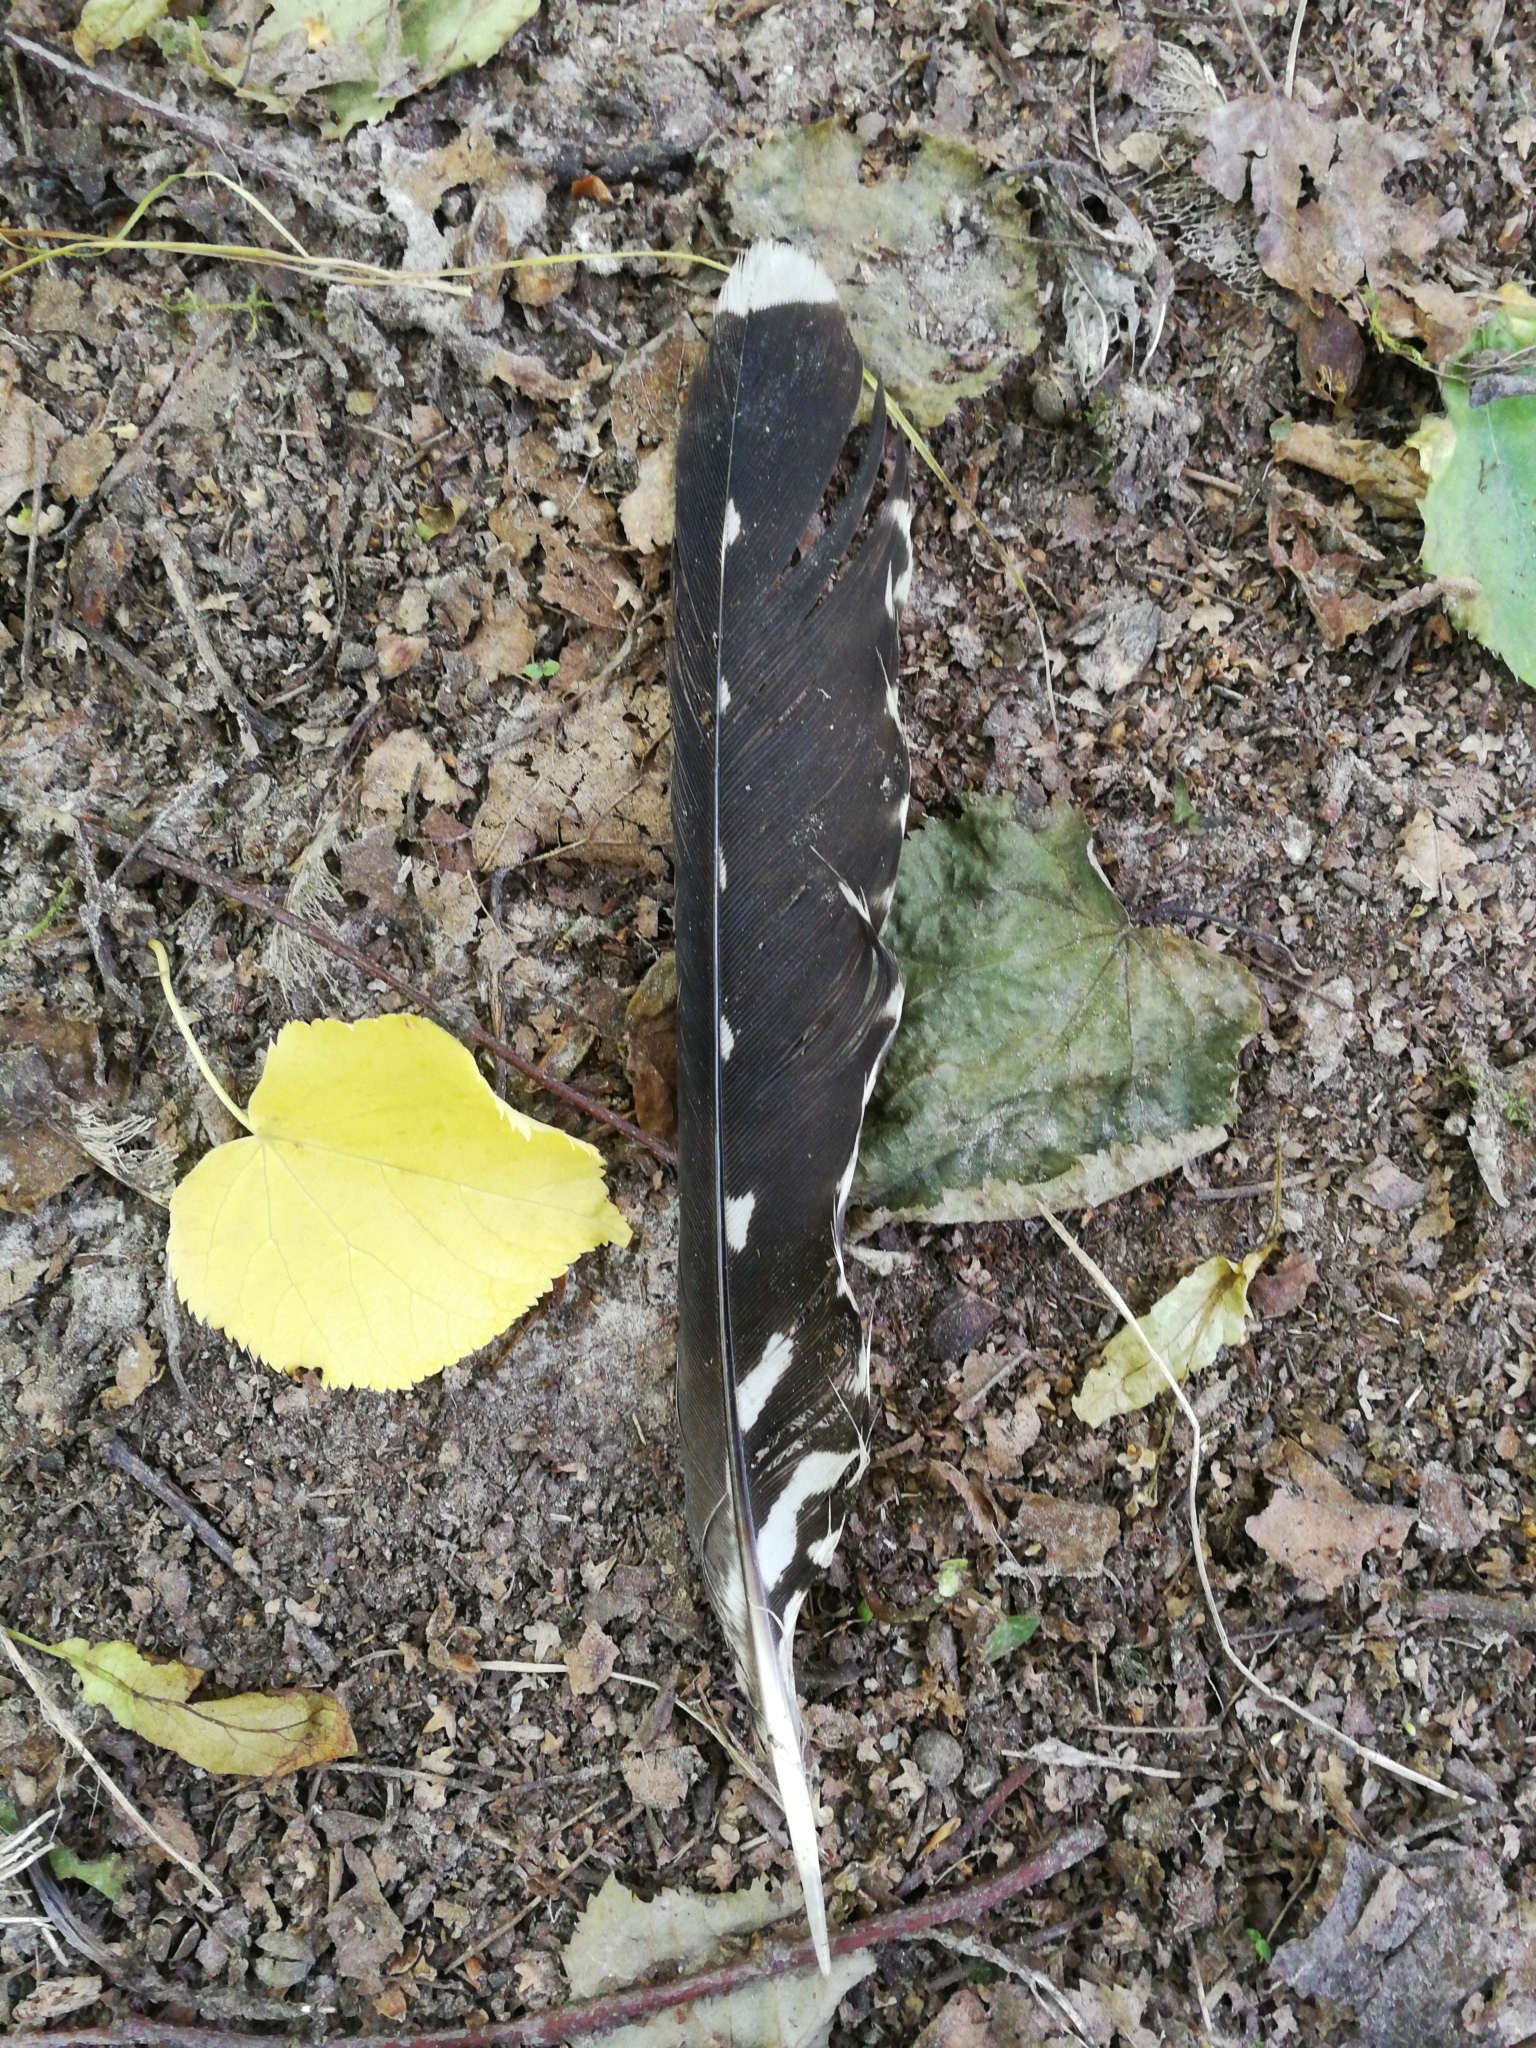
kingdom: Animalia
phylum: Chordata
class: Aves
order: Cuculiformes
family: Cuculidae
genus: Cuculus
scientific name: Cuculus canorus
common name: Common cuckoo
